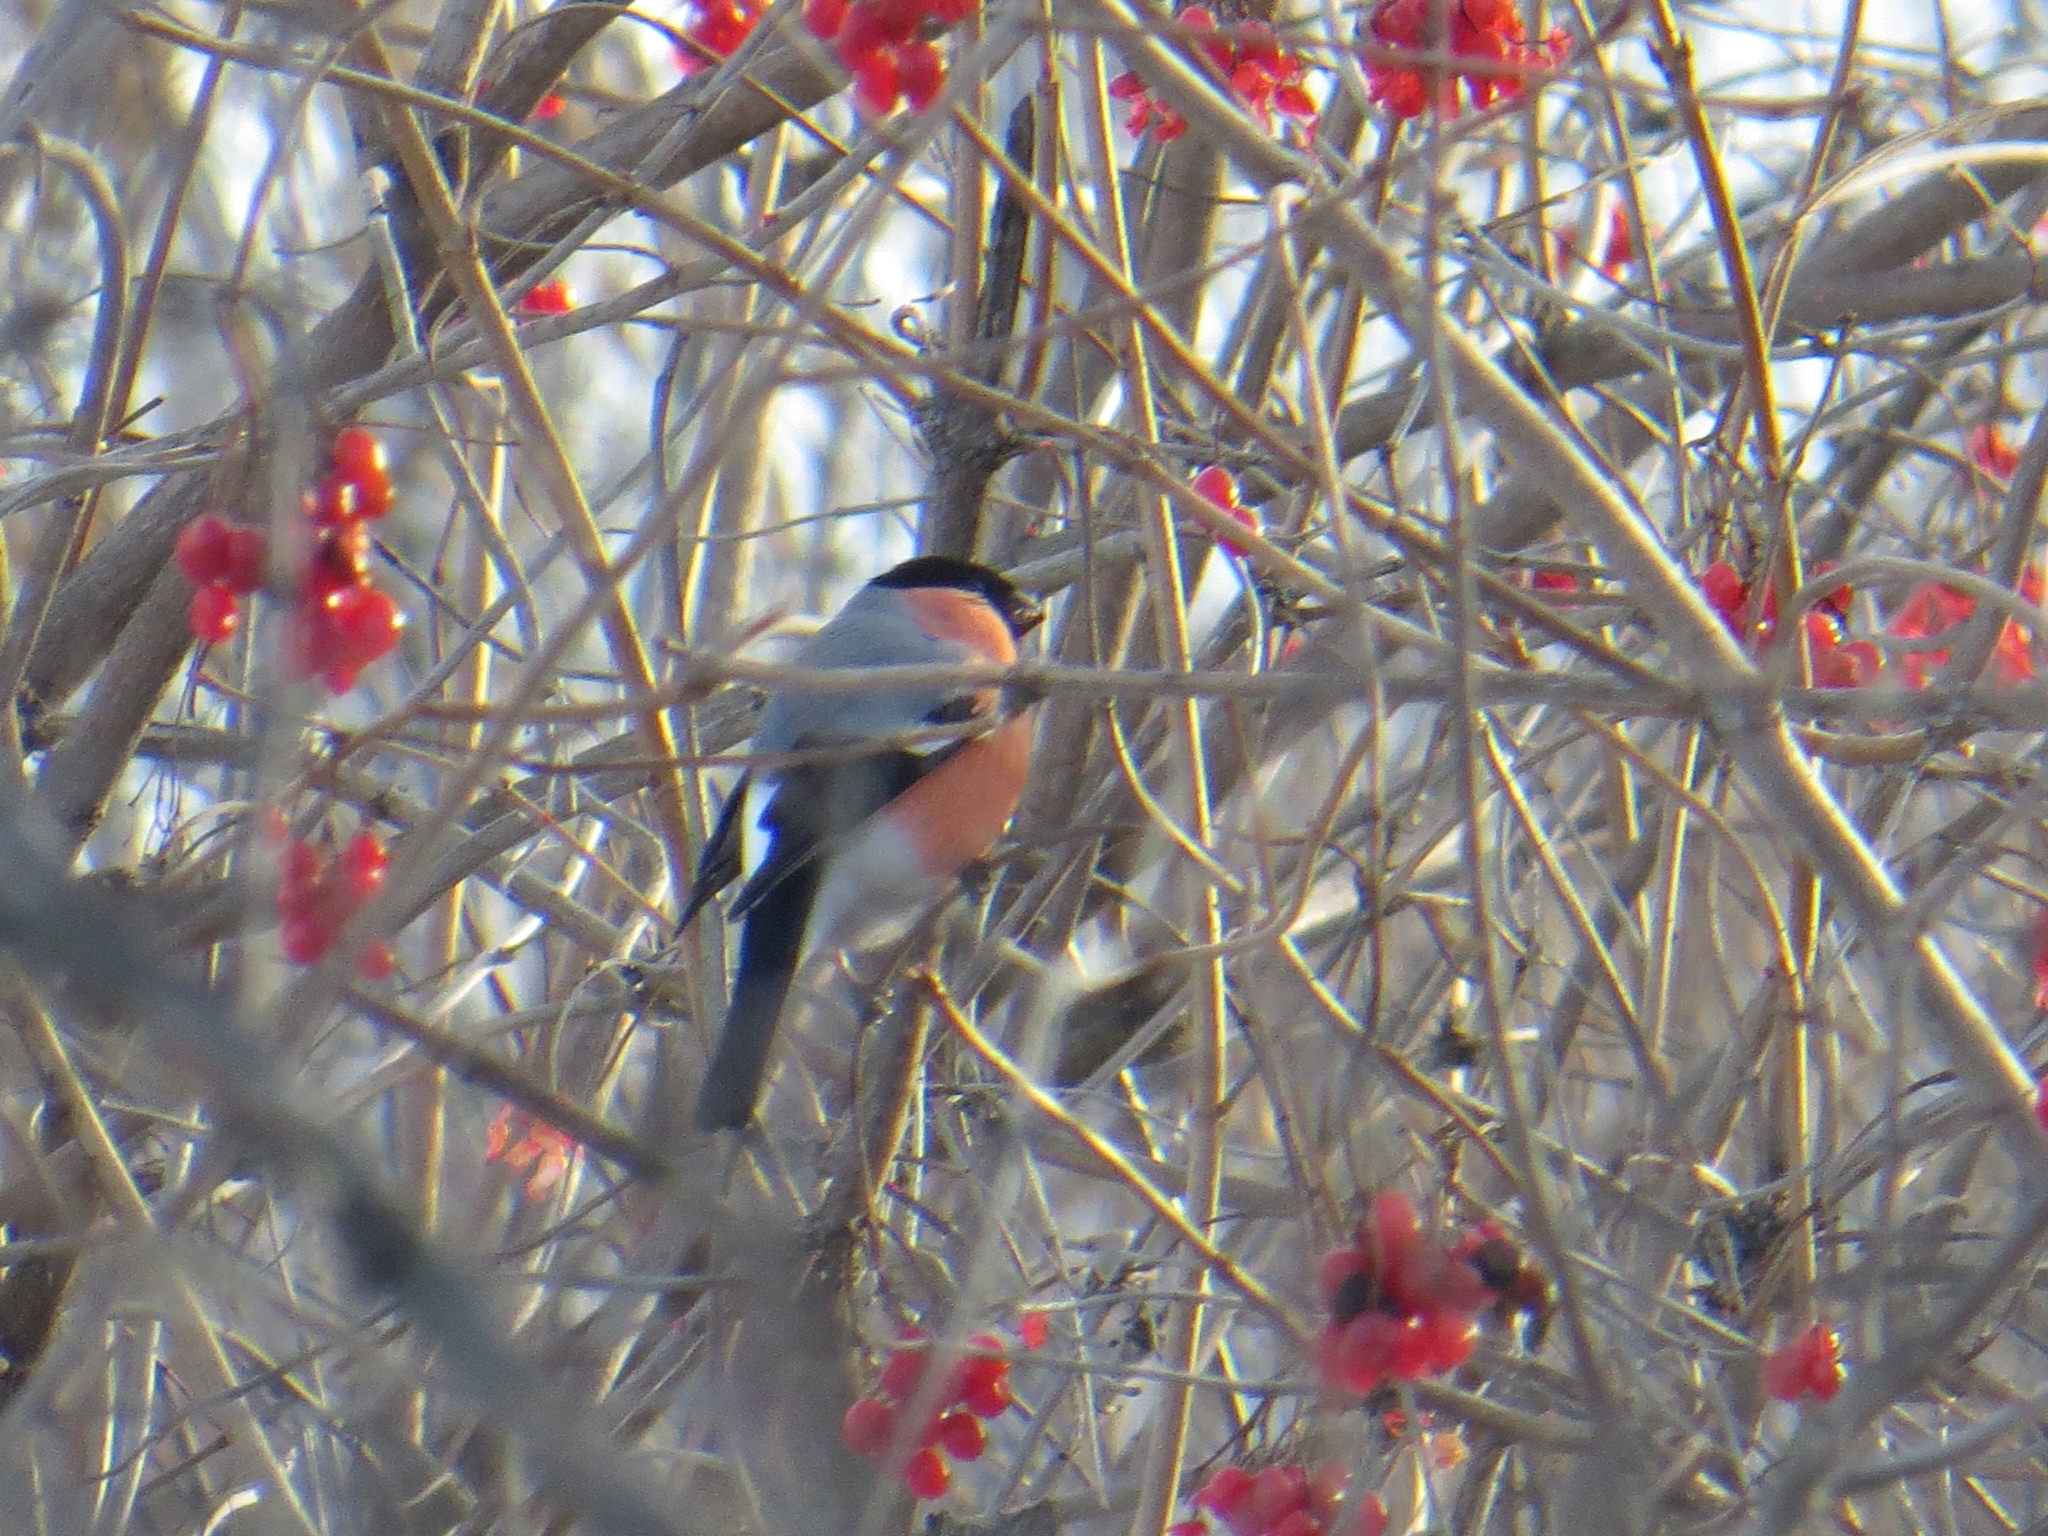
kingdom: Animalia
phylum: Chordata
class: Aves
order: Passeriformes
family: Fringillidae
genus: Pyrrhula
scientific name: Pyrrhula pyrrhula
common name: Eurasian bullfinch
